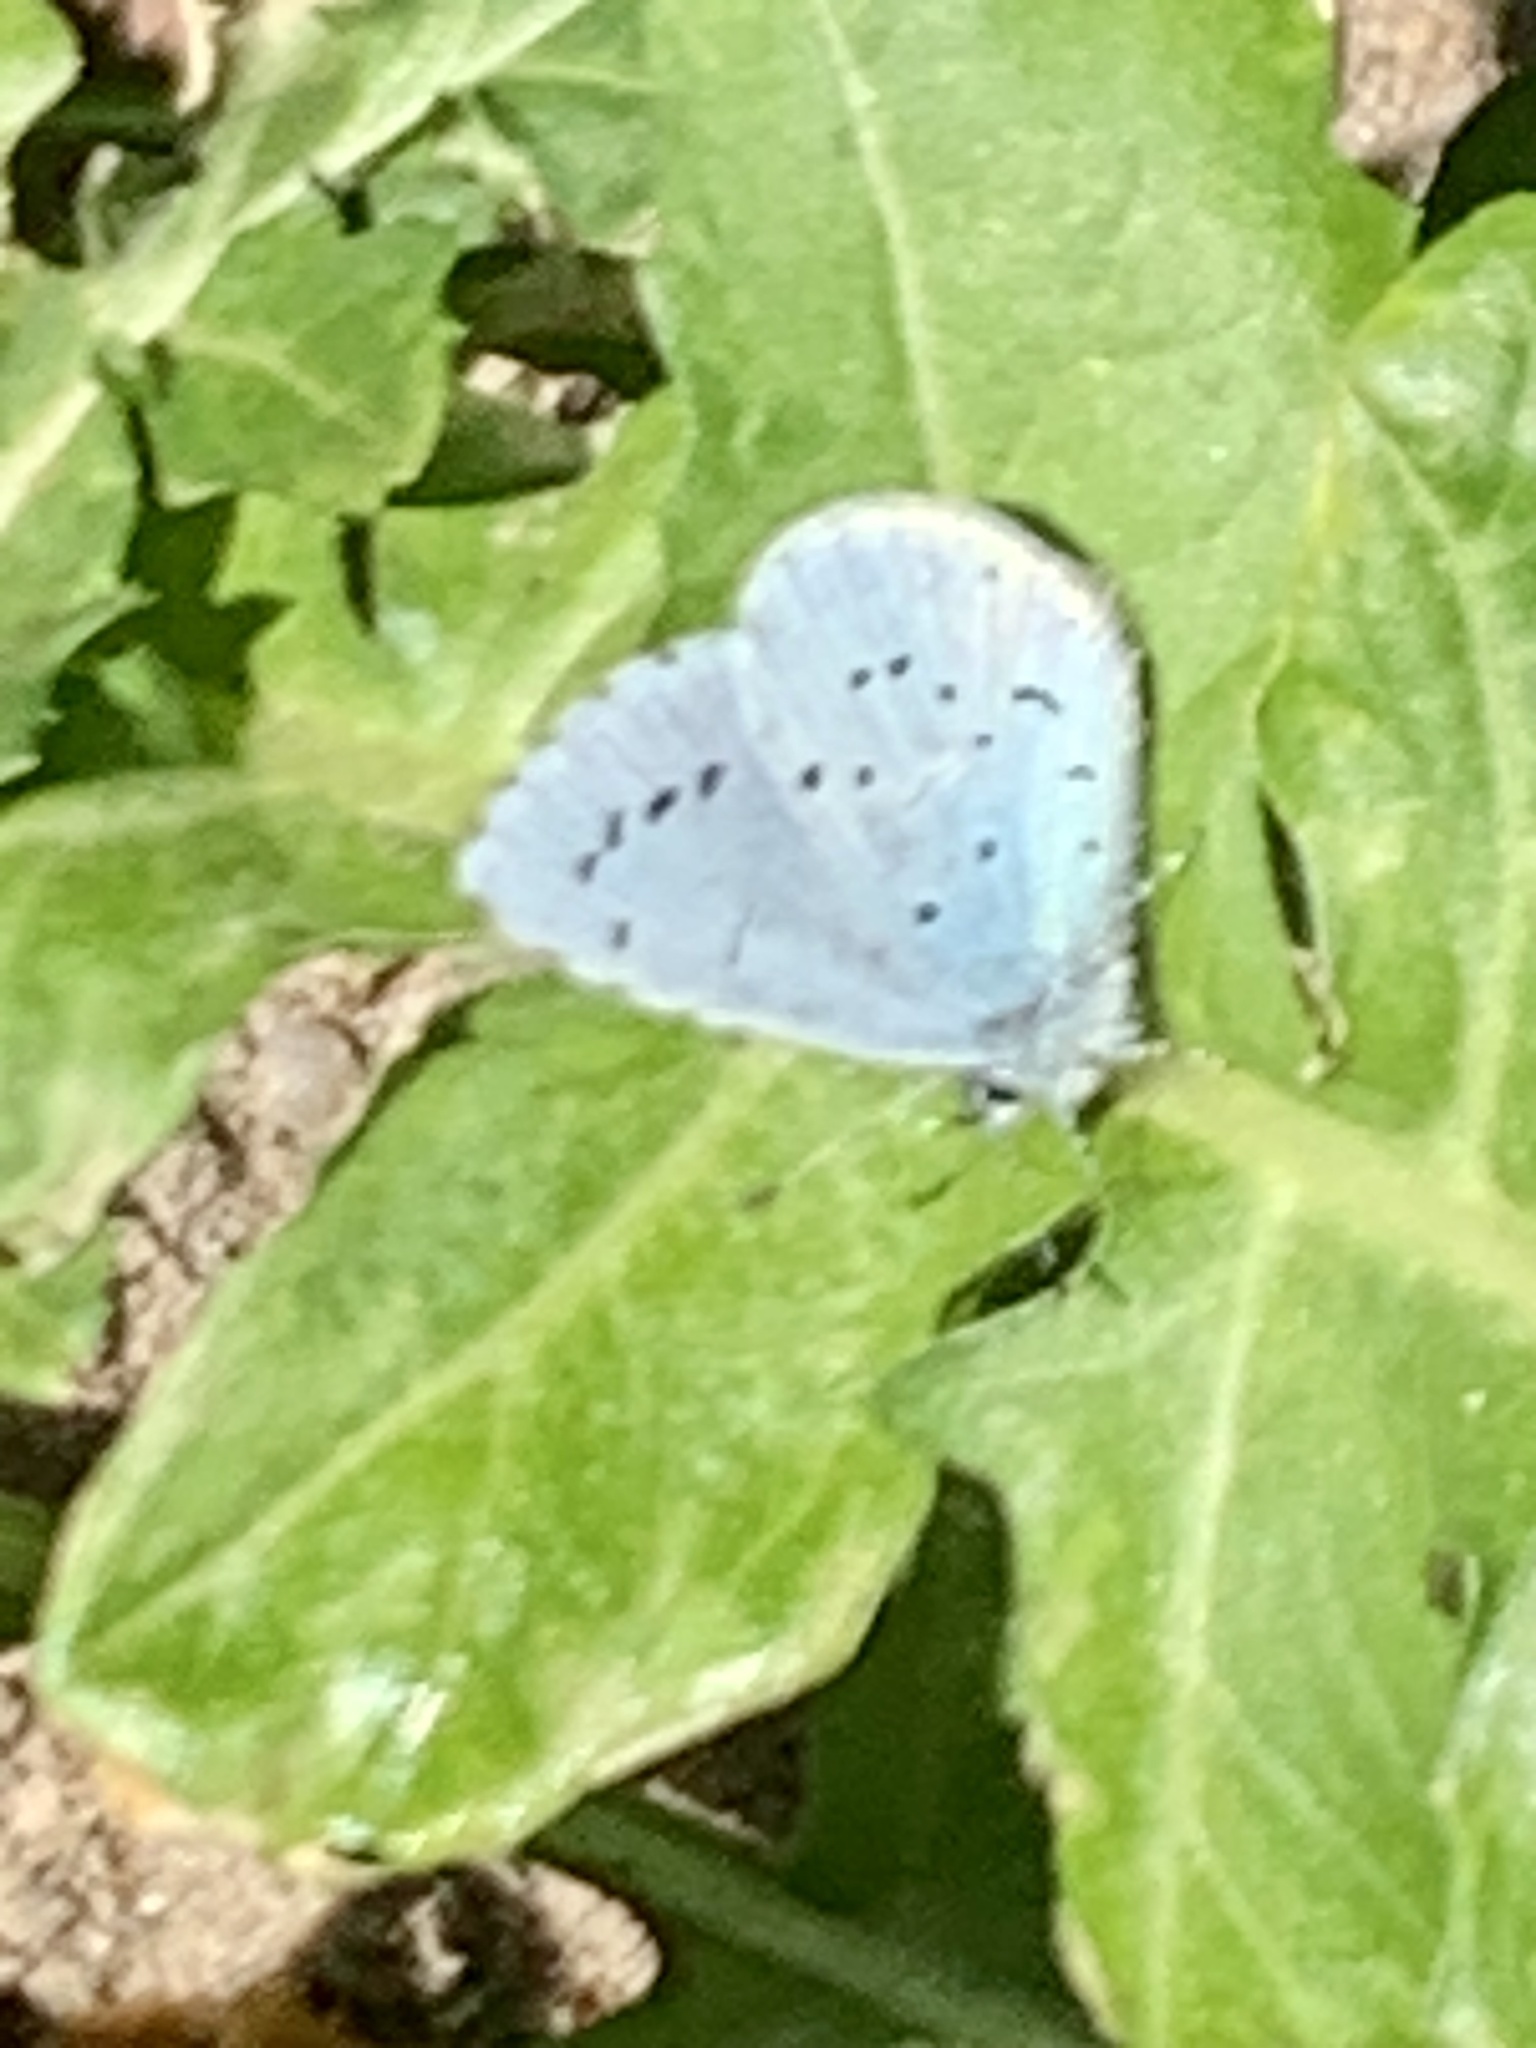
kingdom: Animalia
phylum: Arthropoda
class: Insecta
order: Lepidoptera
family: Lycaenidae
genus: Celastrina
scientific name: Celastrina argiolus
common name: Holly blue
